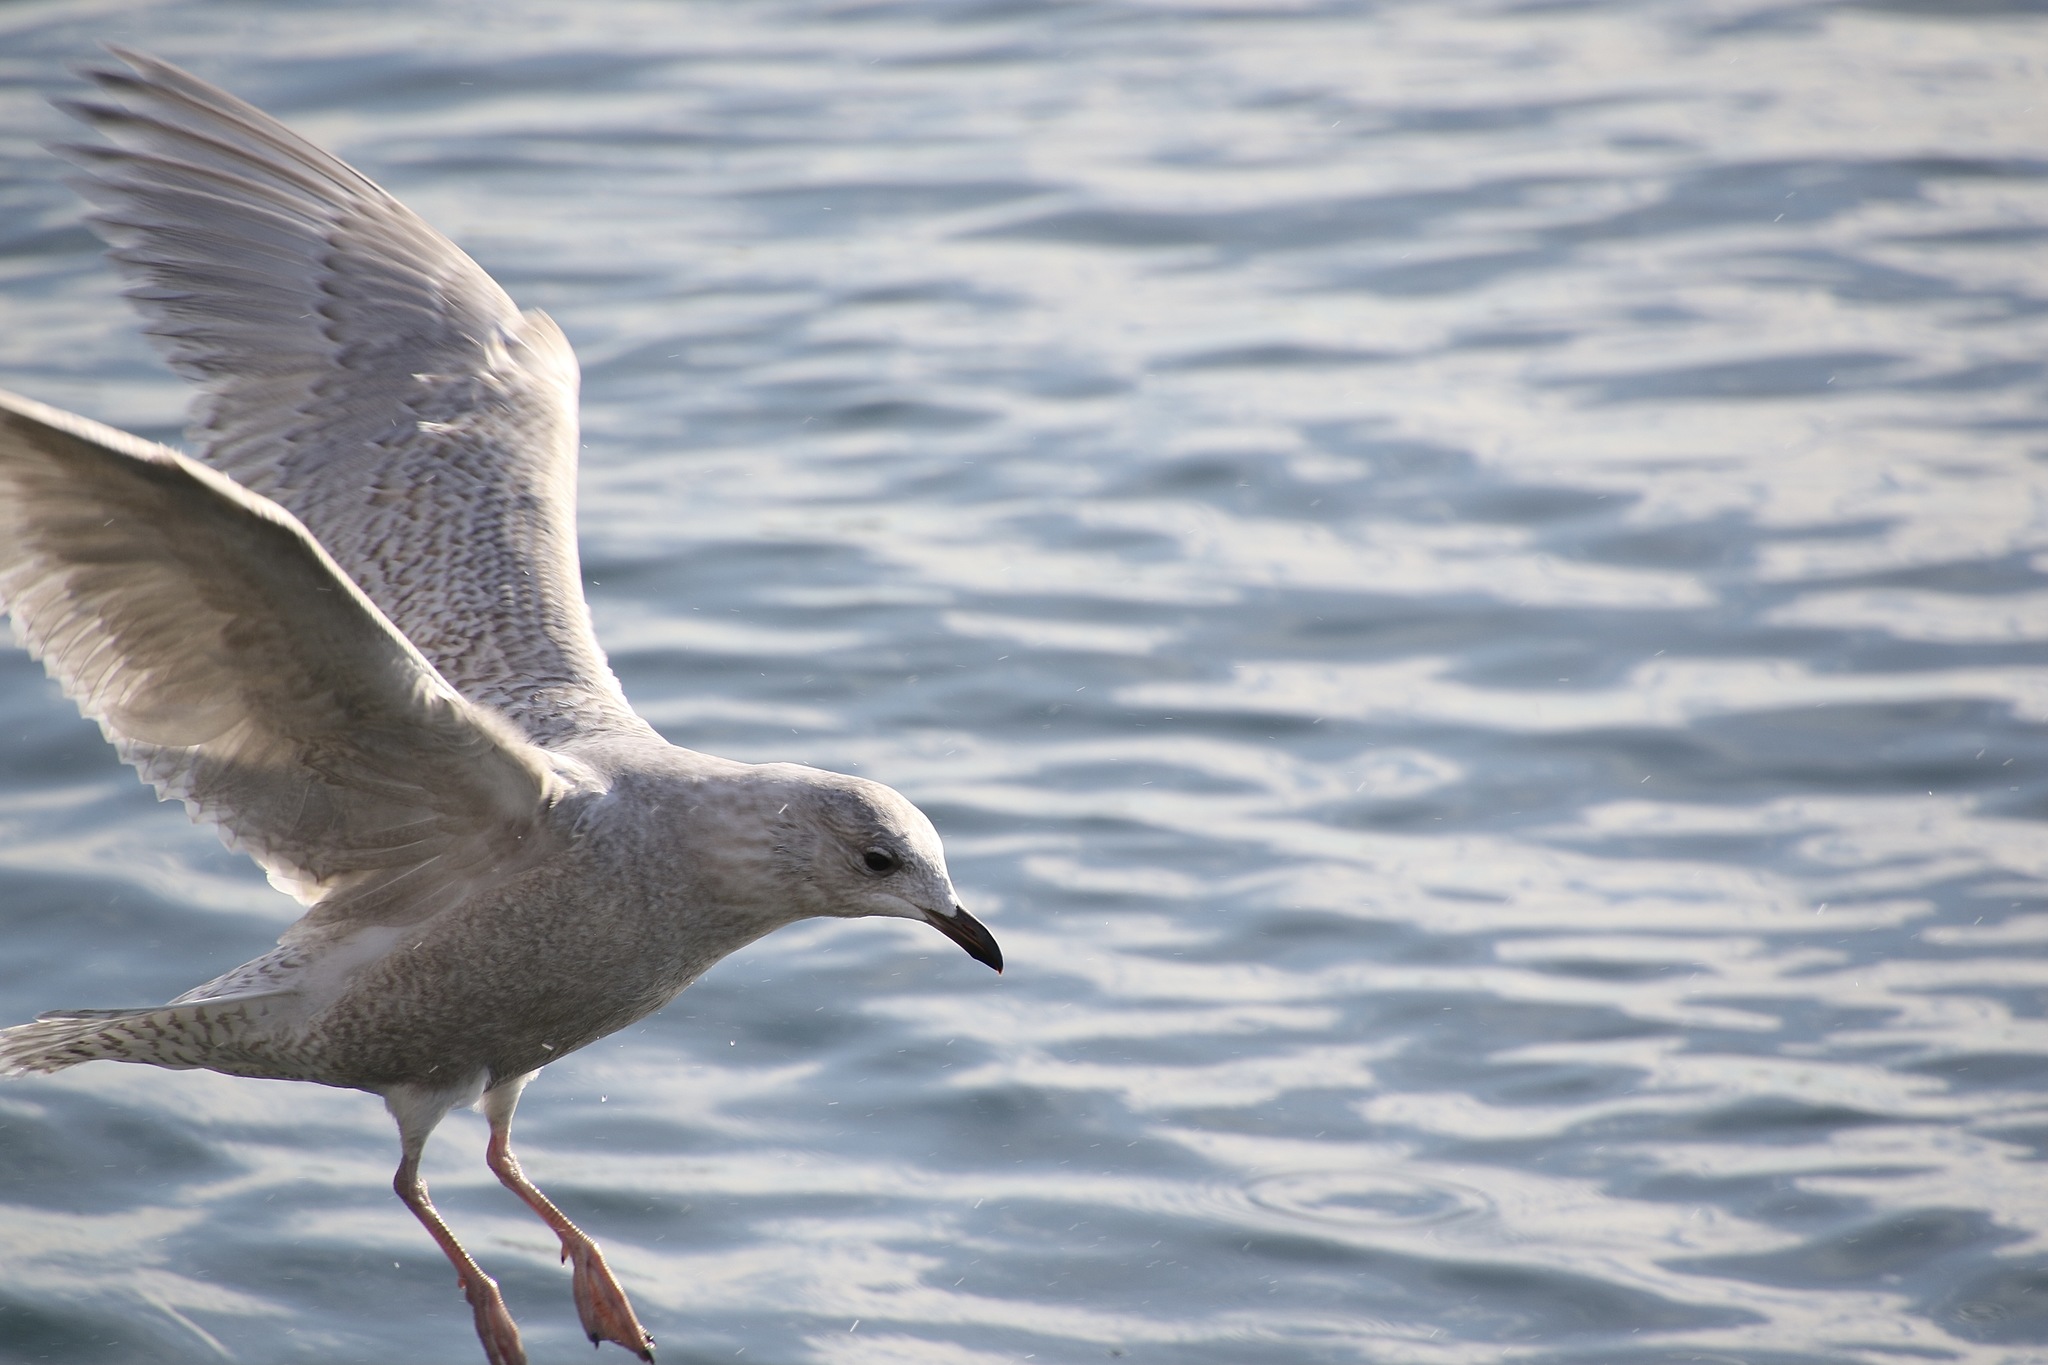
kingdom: Animalia
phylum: Chordata
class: Aves
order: Charadriiformes
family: Laridae
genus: Larus
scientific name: Larus glaucoides
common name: Iceland gull
